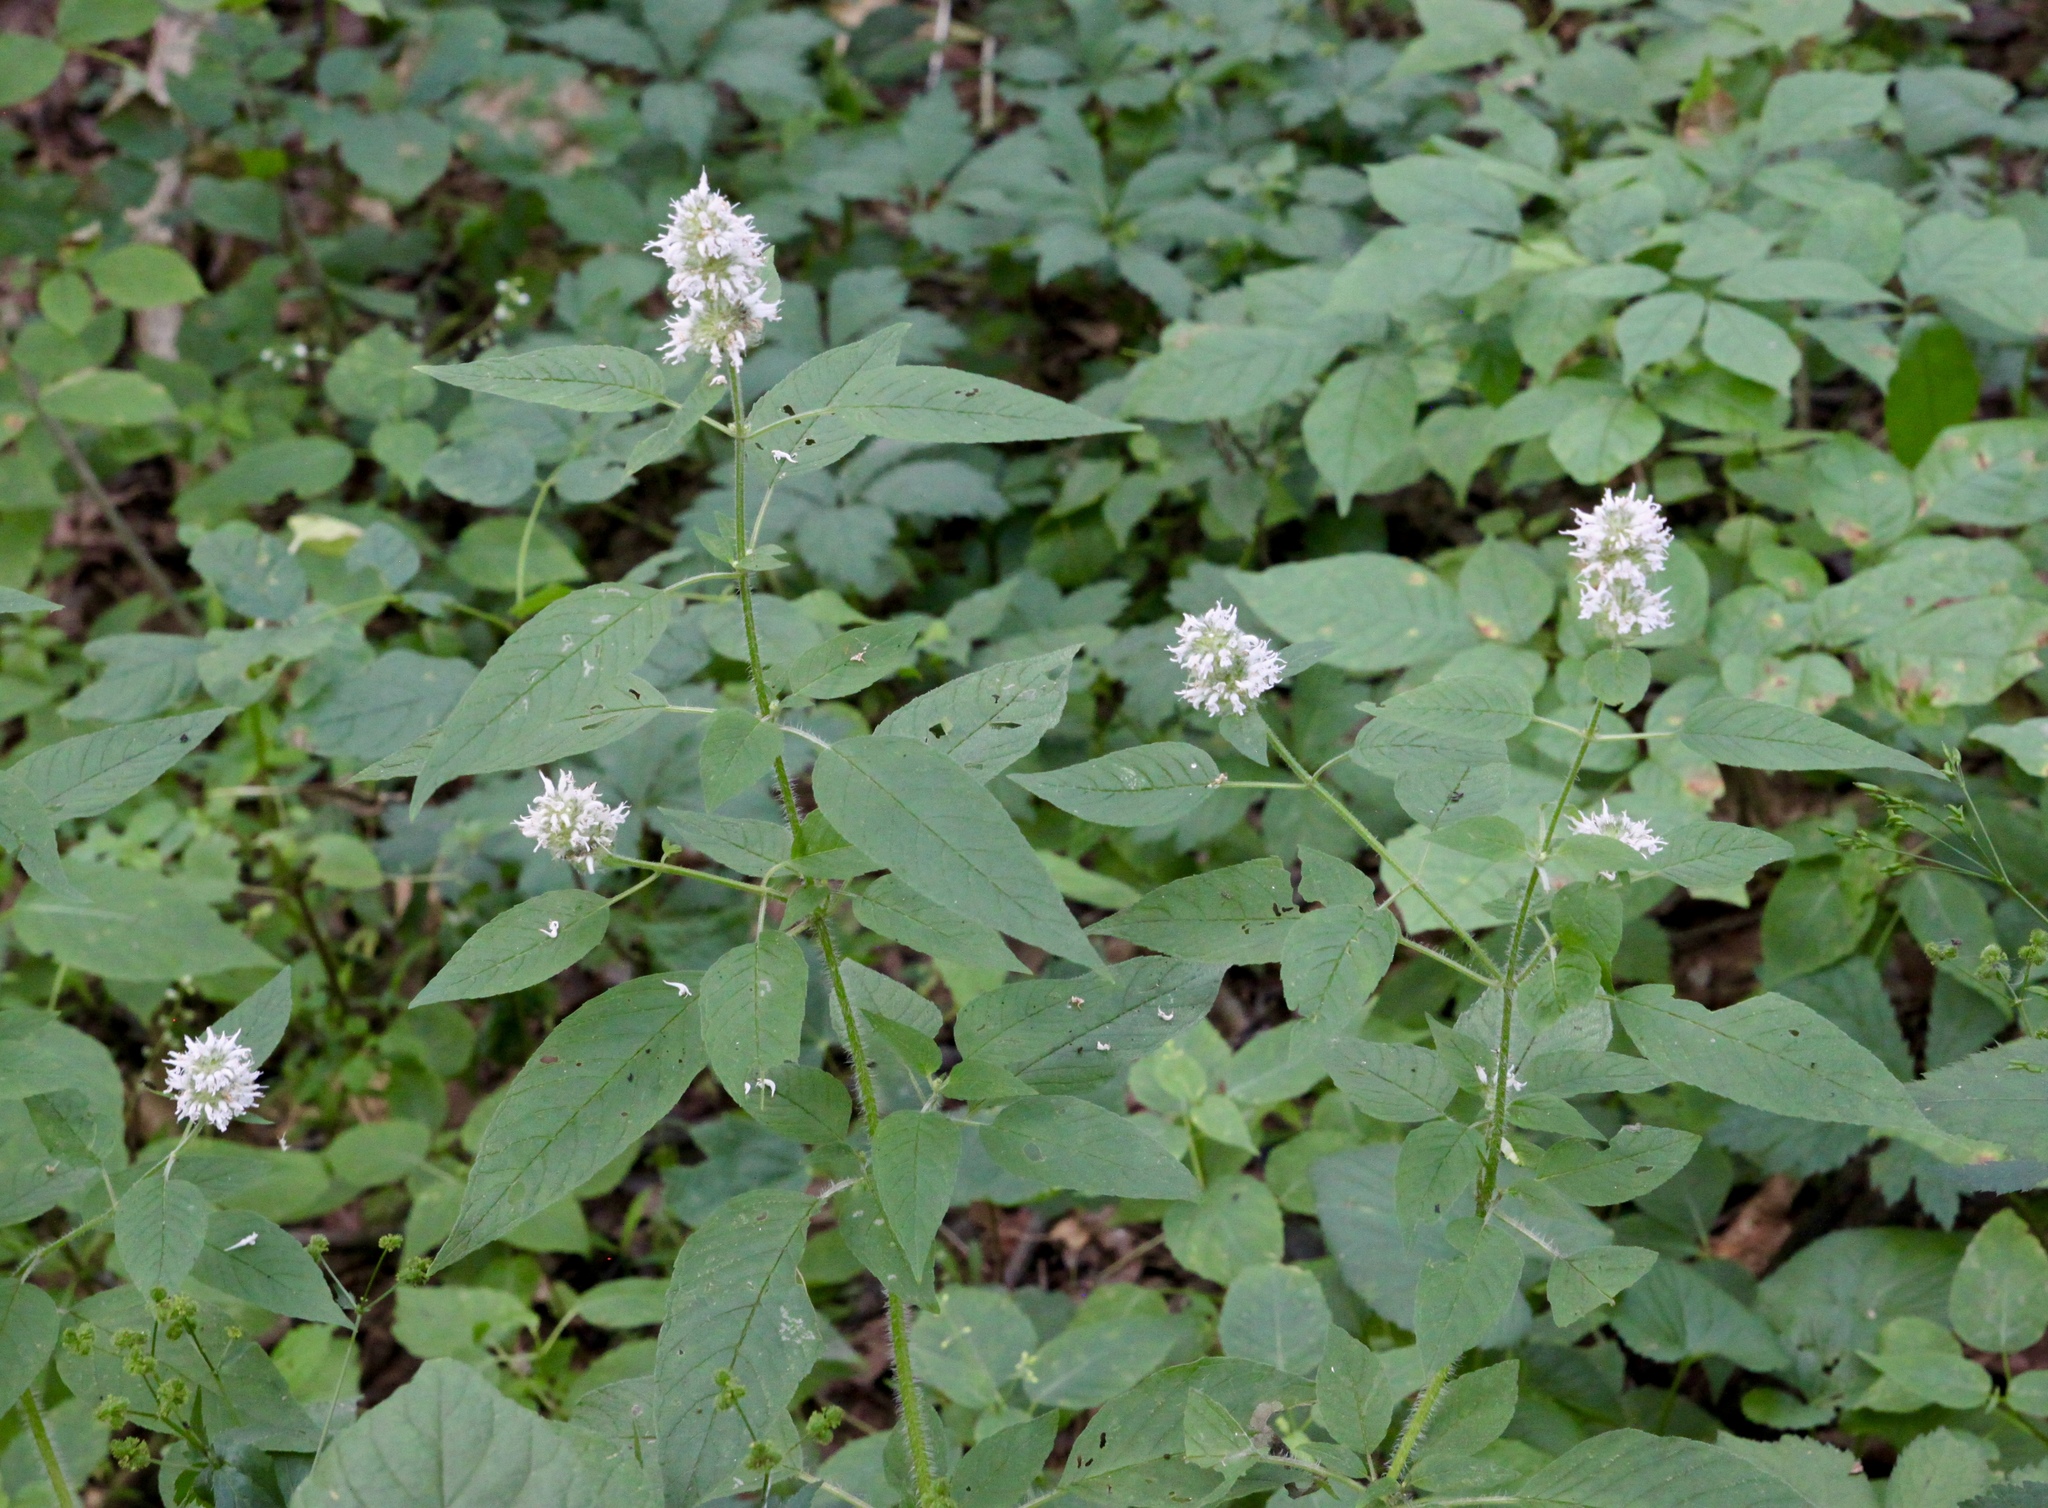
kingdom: Plantae
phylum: Tracheophyta
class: Magnoliopsida
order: Lamiales
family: Lamiaceae
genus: Blephilia
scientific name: Blephilia hirsuta
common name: Hairy blephilia
